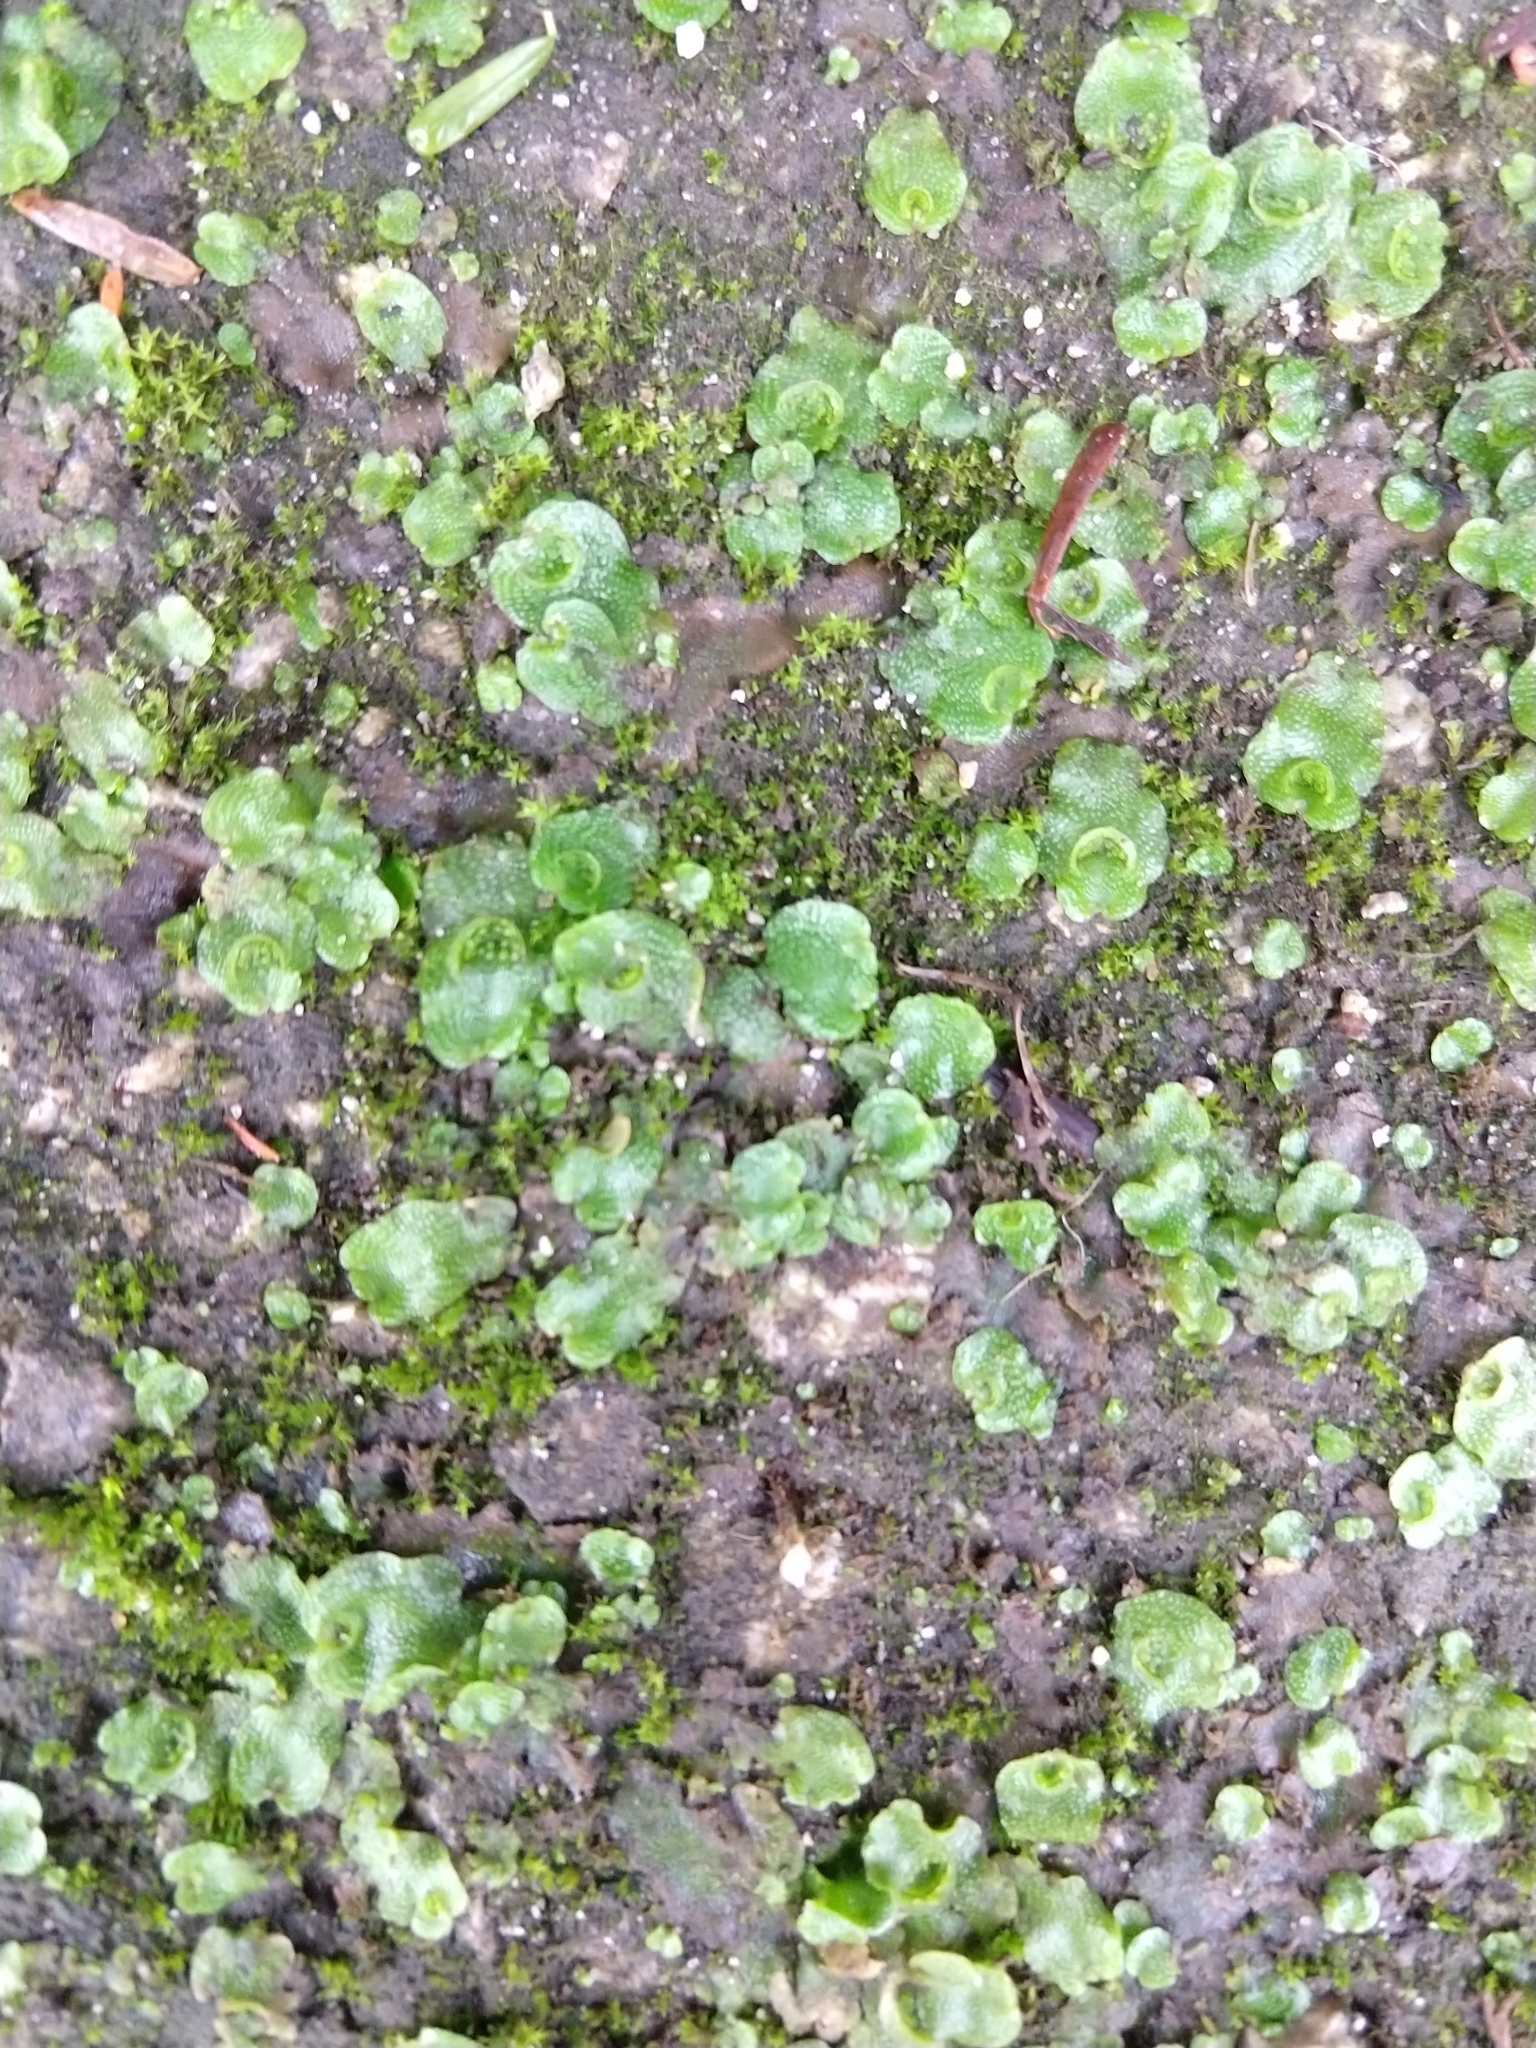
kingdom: Plantae
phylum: Marchantiophyta
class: Marchantiopsida
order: Lunulariales
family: Lunulariaceae
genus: Lunularia
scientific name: Lunularia cruciata
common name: Crescent-cup liverwort
